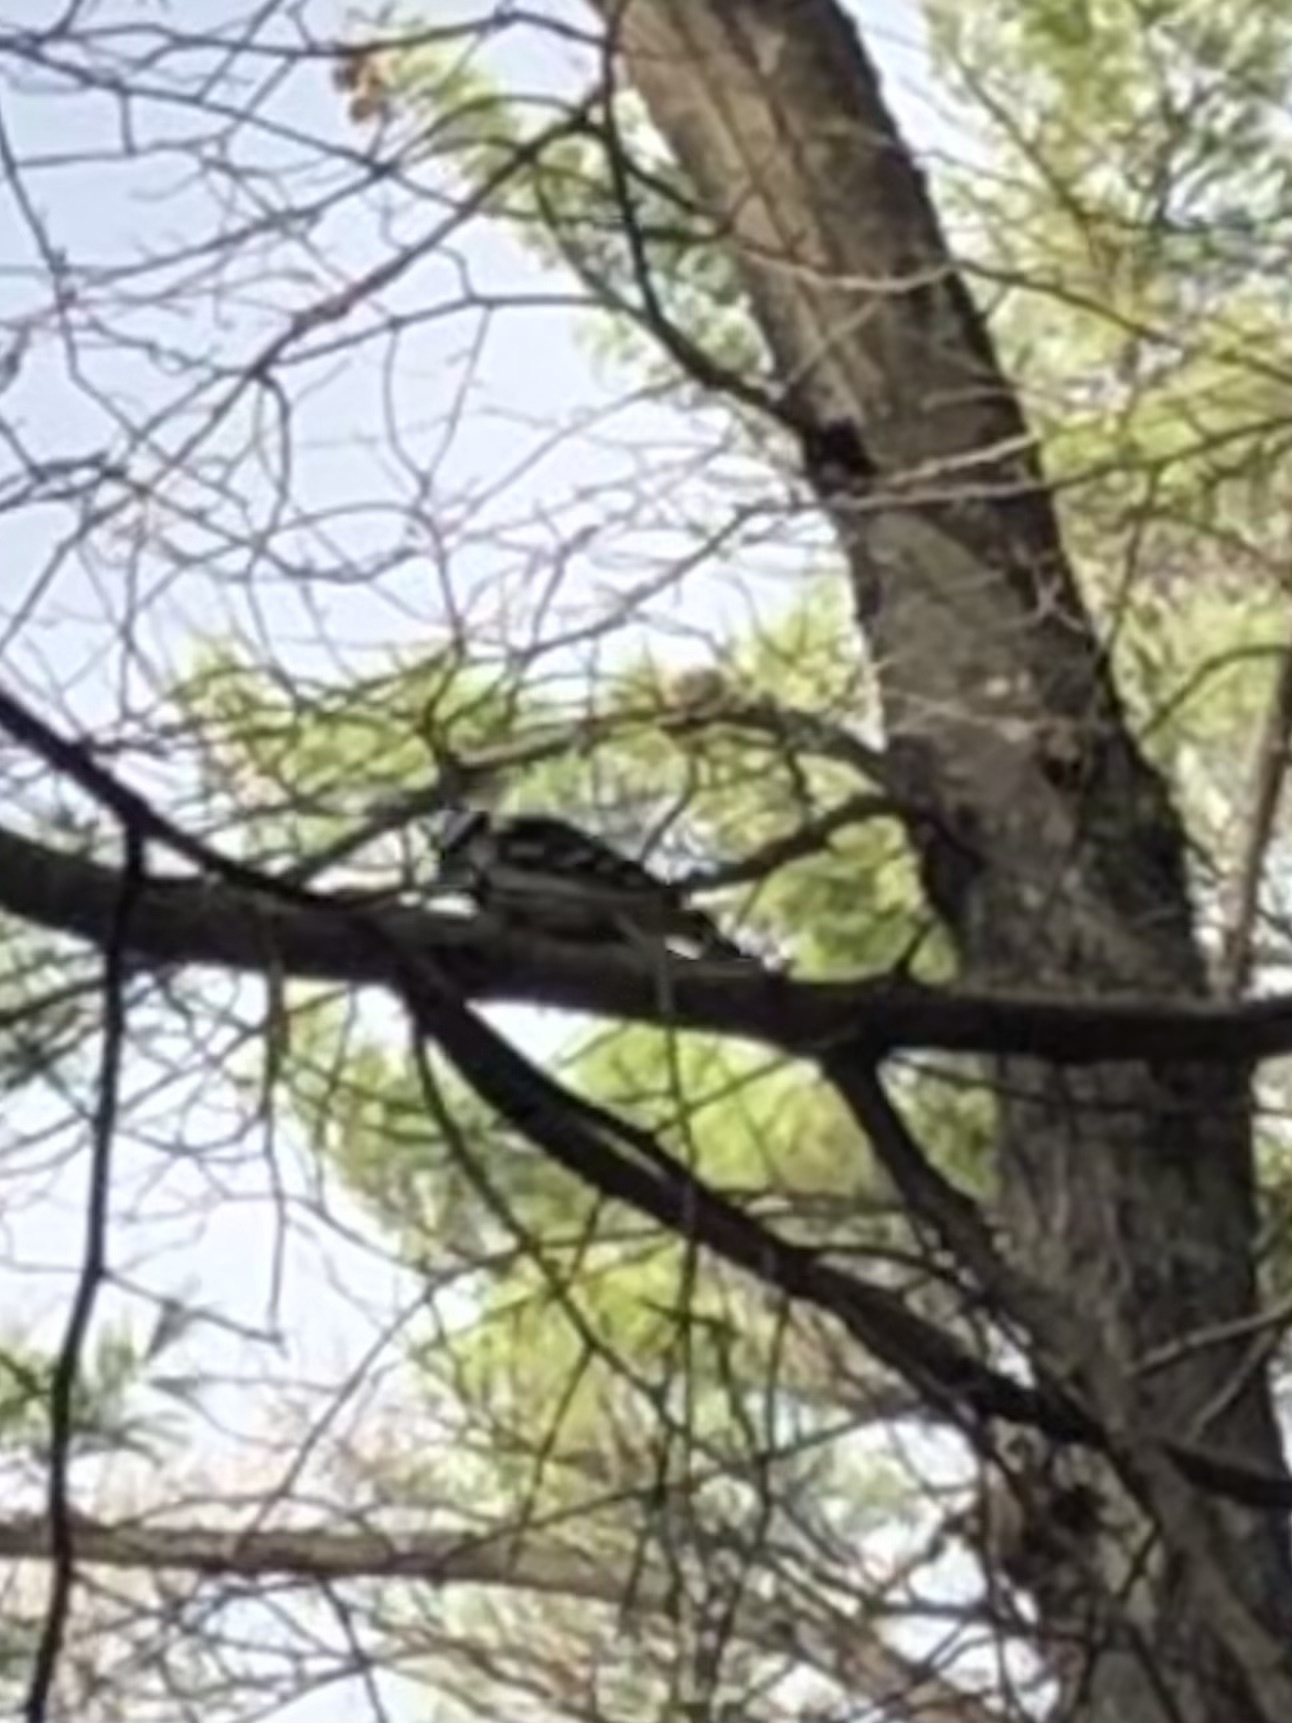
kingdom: Animalia
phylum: Chordata
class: Aves
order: Piciformes
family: Picidae
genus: Dryobates
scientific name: Dryobates
